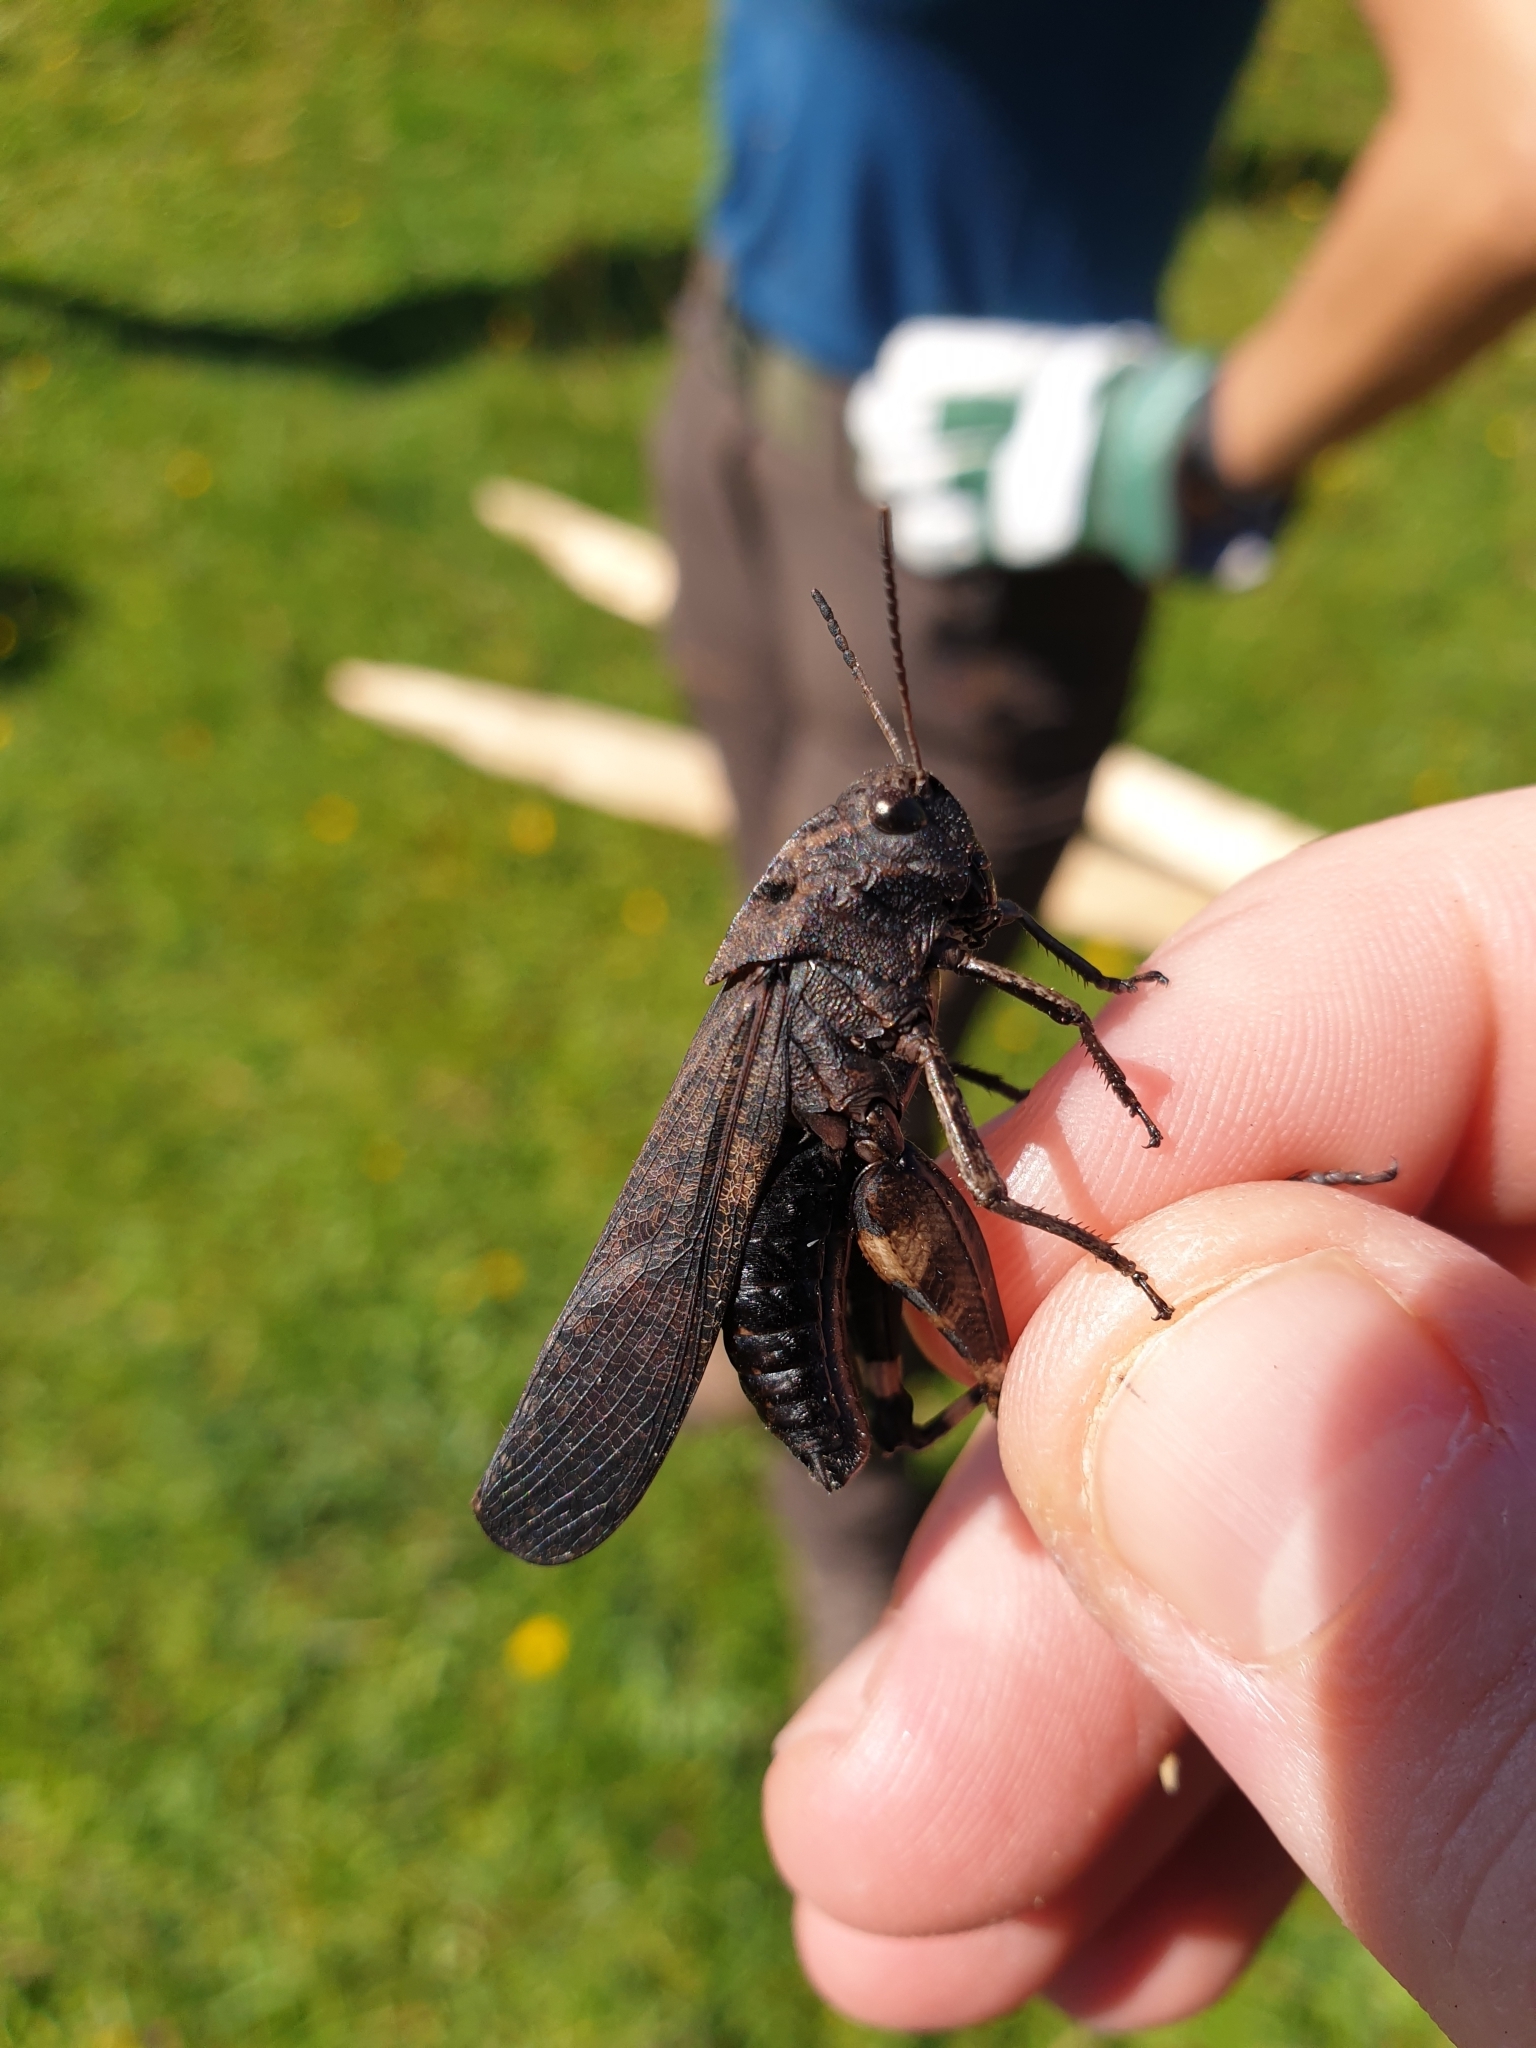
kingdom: Animalia
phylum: Arthropoda
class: Insecta
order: Orthoptera
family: Acrididae
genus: Psophus
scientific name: Psophus stridulus
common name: Rattle grasshopper
